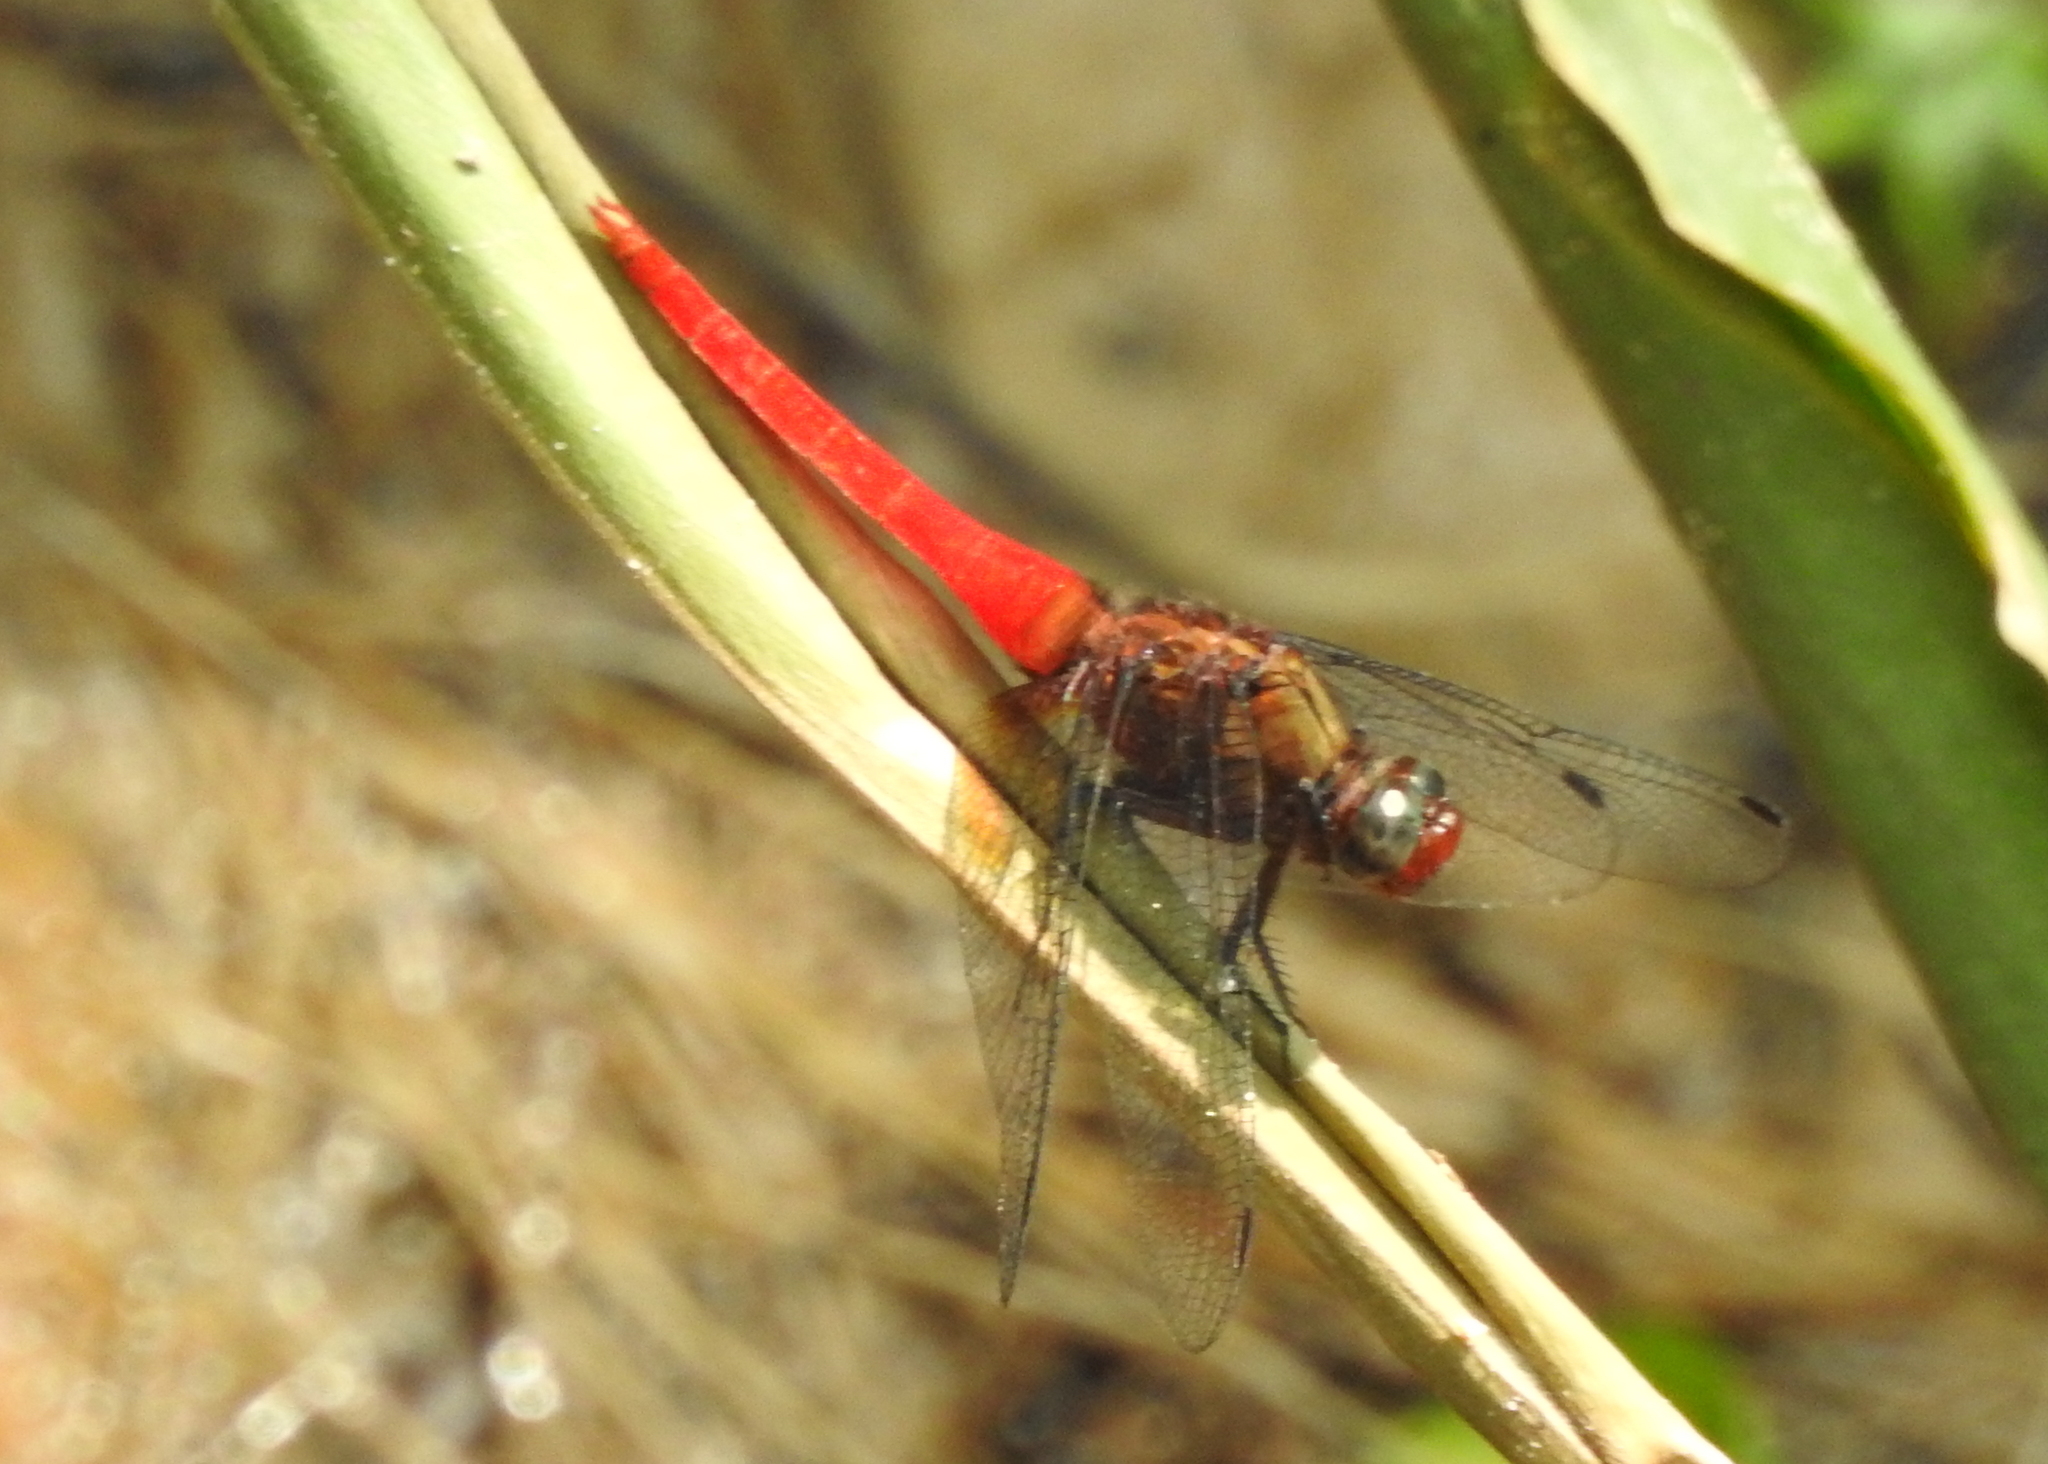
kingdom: Animalia
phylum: Arthropoda
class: Insecta
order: Odonata
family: Libellulidae
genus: Orthetrum
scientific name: Orthetrum chrysis
